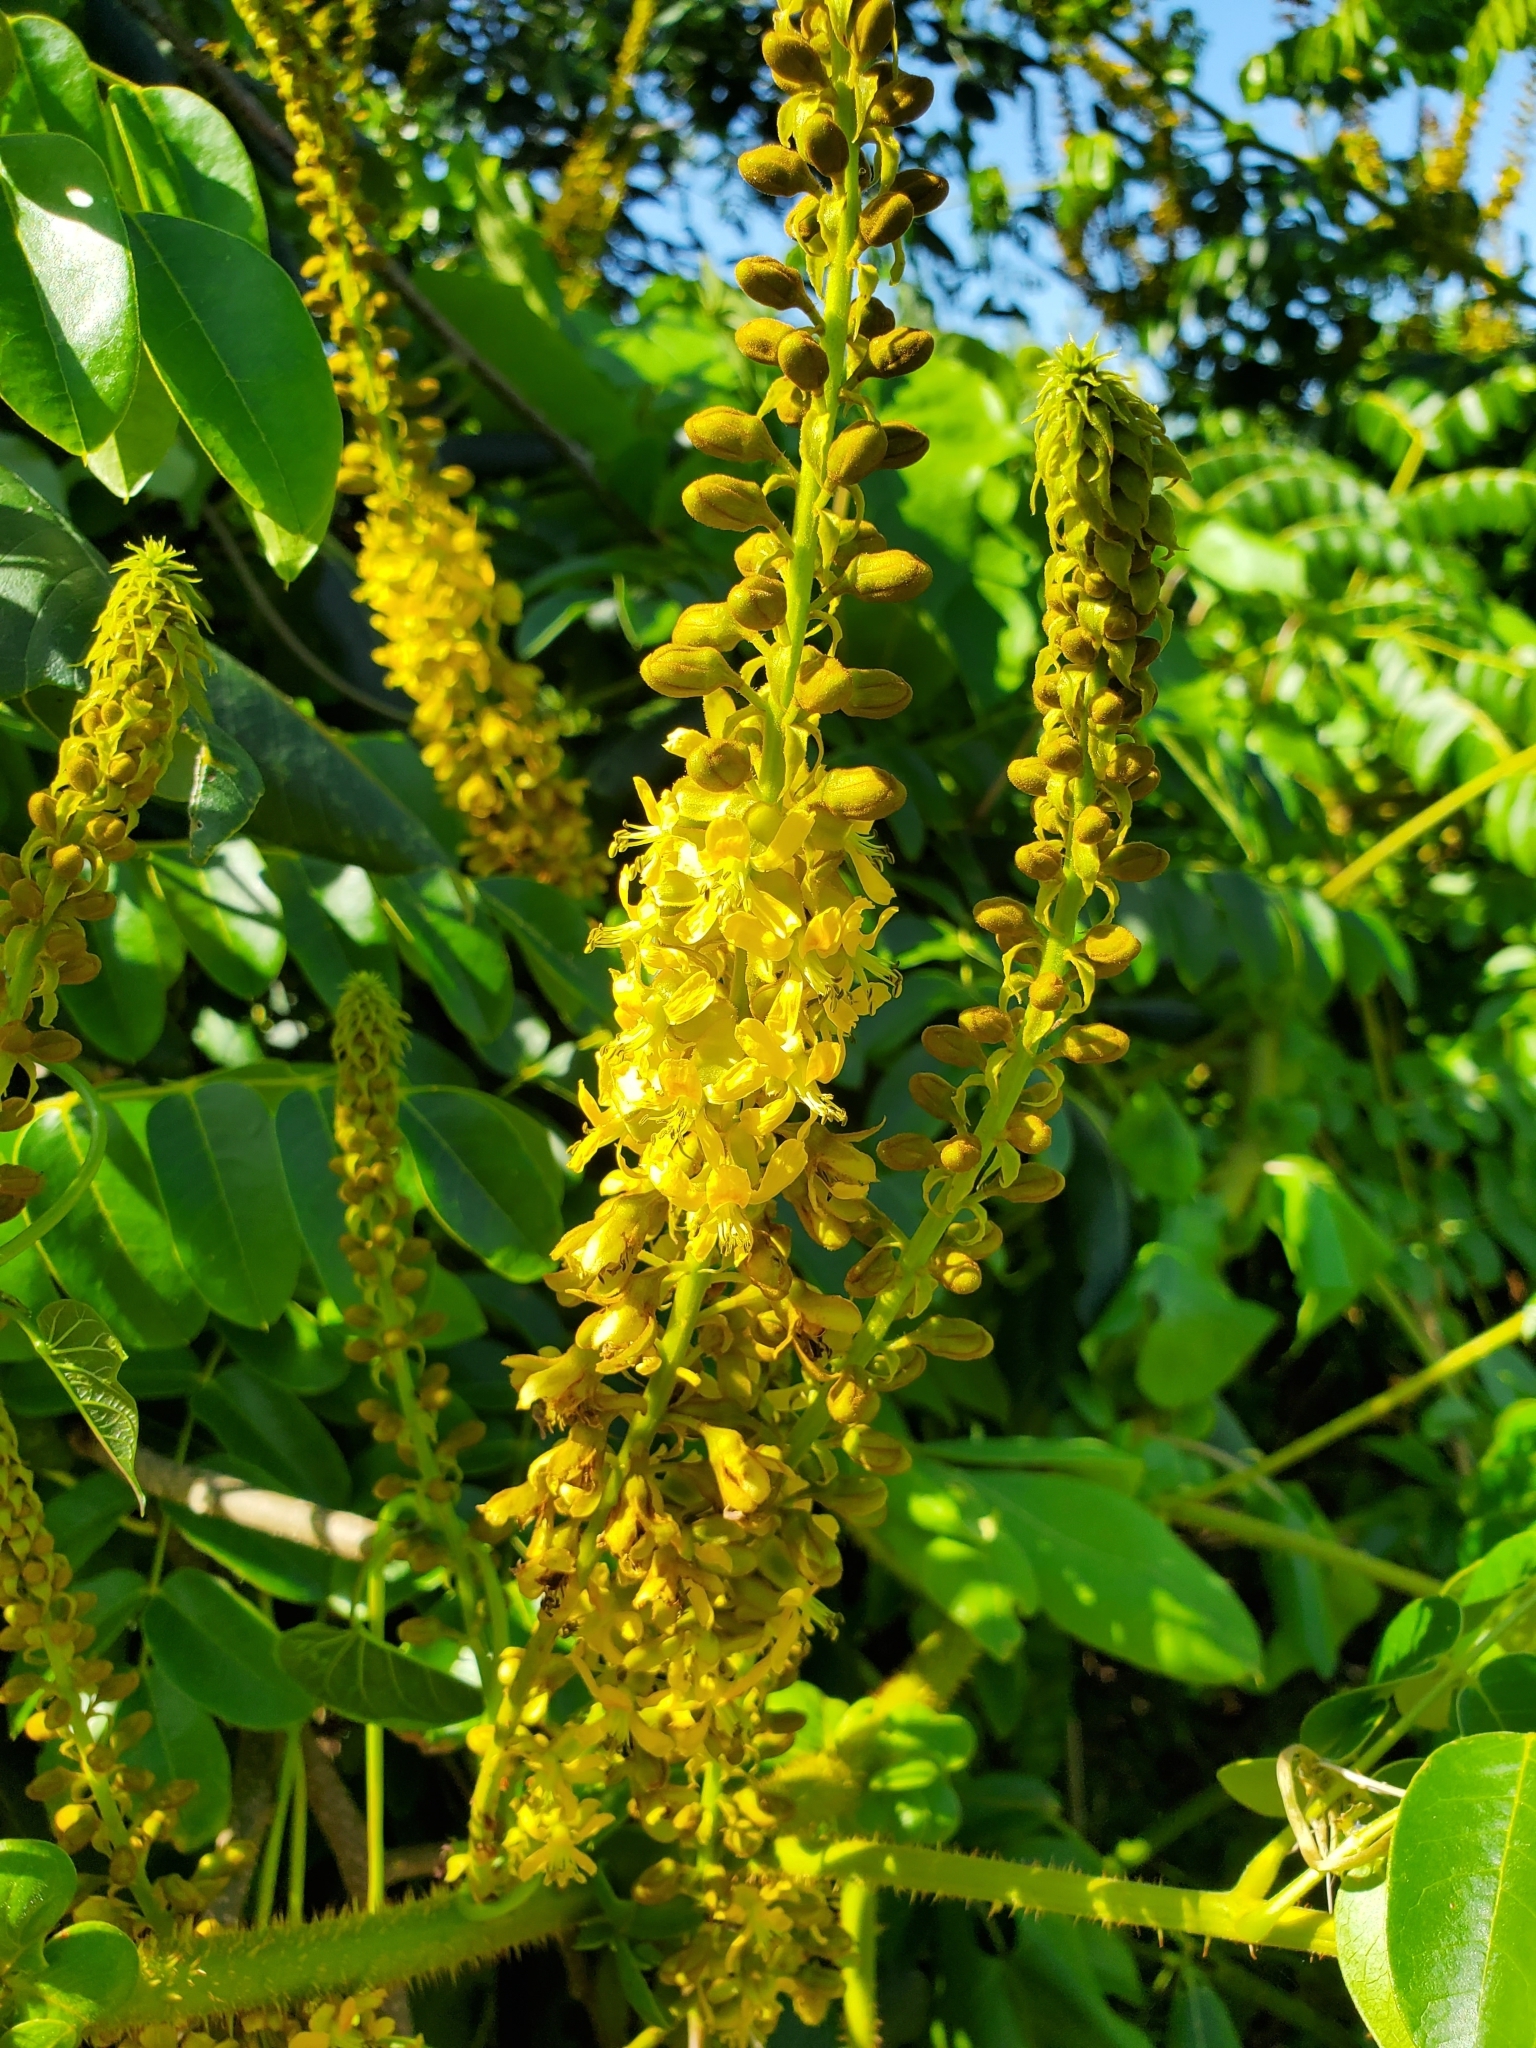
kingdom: Plantae
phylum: Tracheophyta
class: Magnoliopsida
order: Fabales
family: Fabaceae
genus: Guilandina
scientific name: Guilandina bonduc
